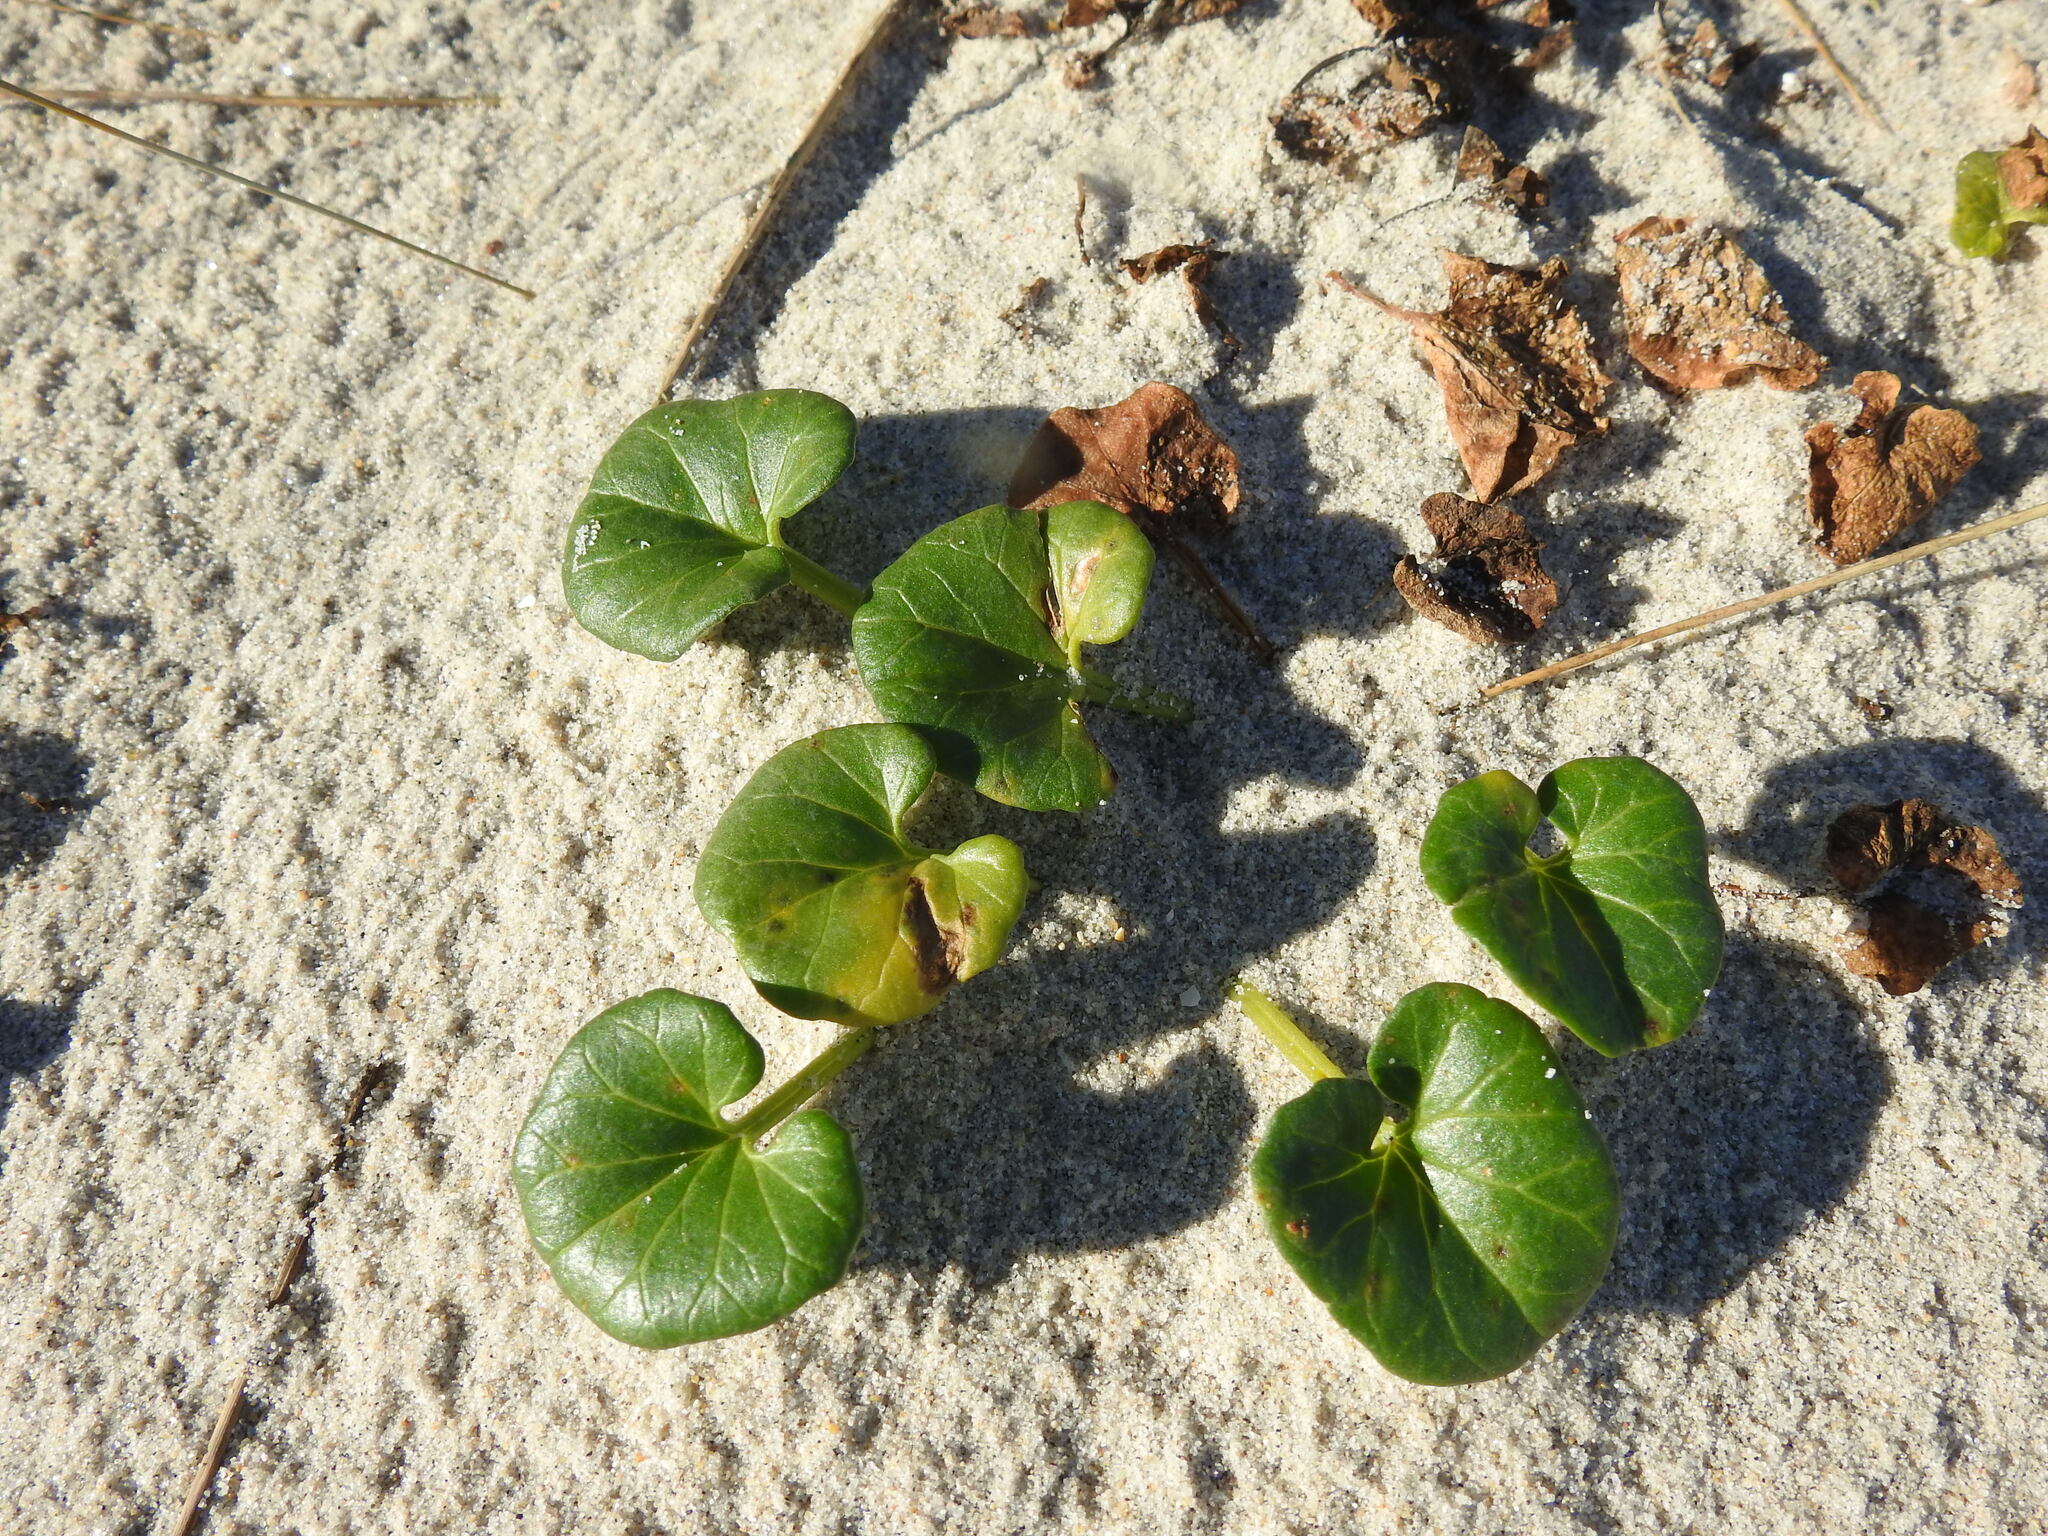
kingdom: Plantae
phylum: Tracheophyta
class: Magnoliopsida
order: Solanales
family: Convolvulaceae
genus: Calystegia
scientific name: Calystegia soldanella
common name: Sea bindweed
